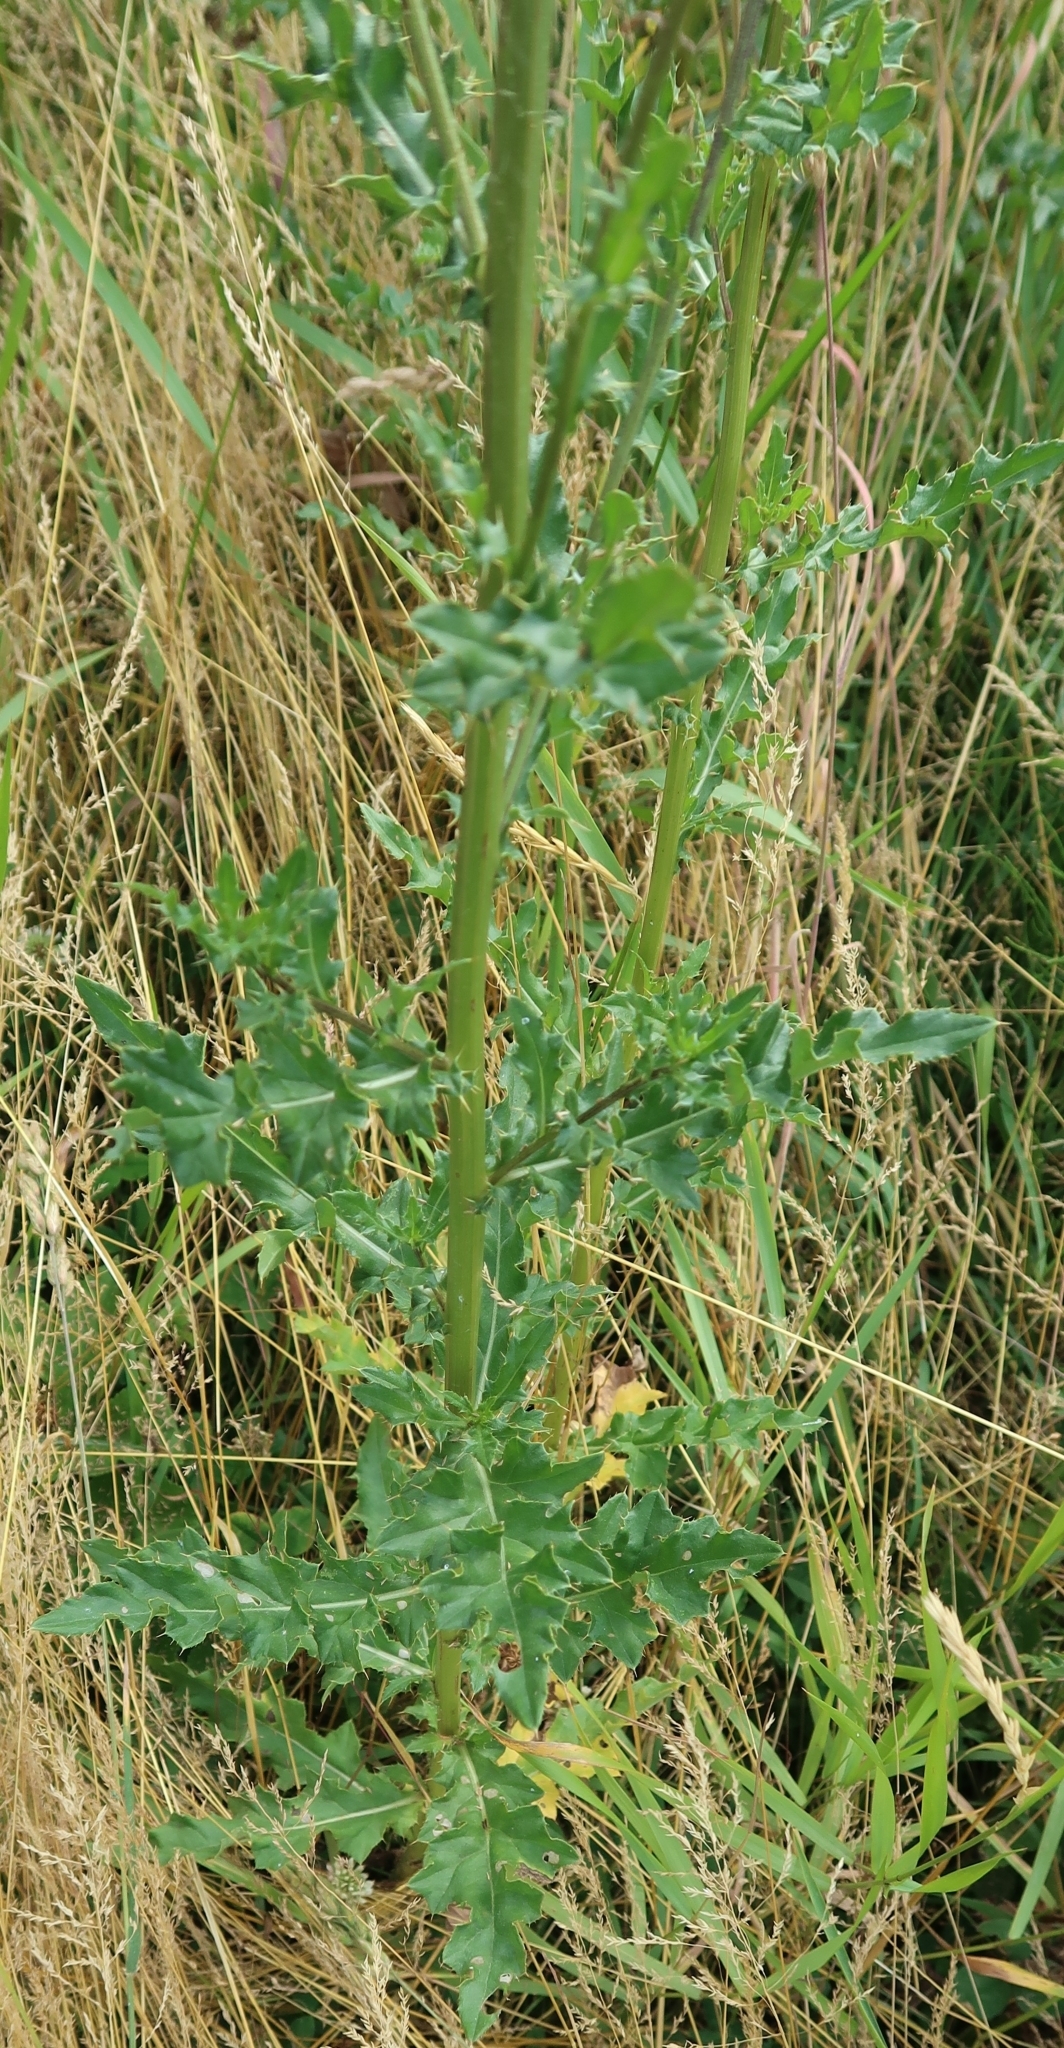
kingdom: Plantae
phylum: Tracheophyta
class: Magnoliopsida
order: Asterales
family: Asteraceae
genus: Cirsium
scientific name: Cirsium arvense
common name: Creeping thistle
